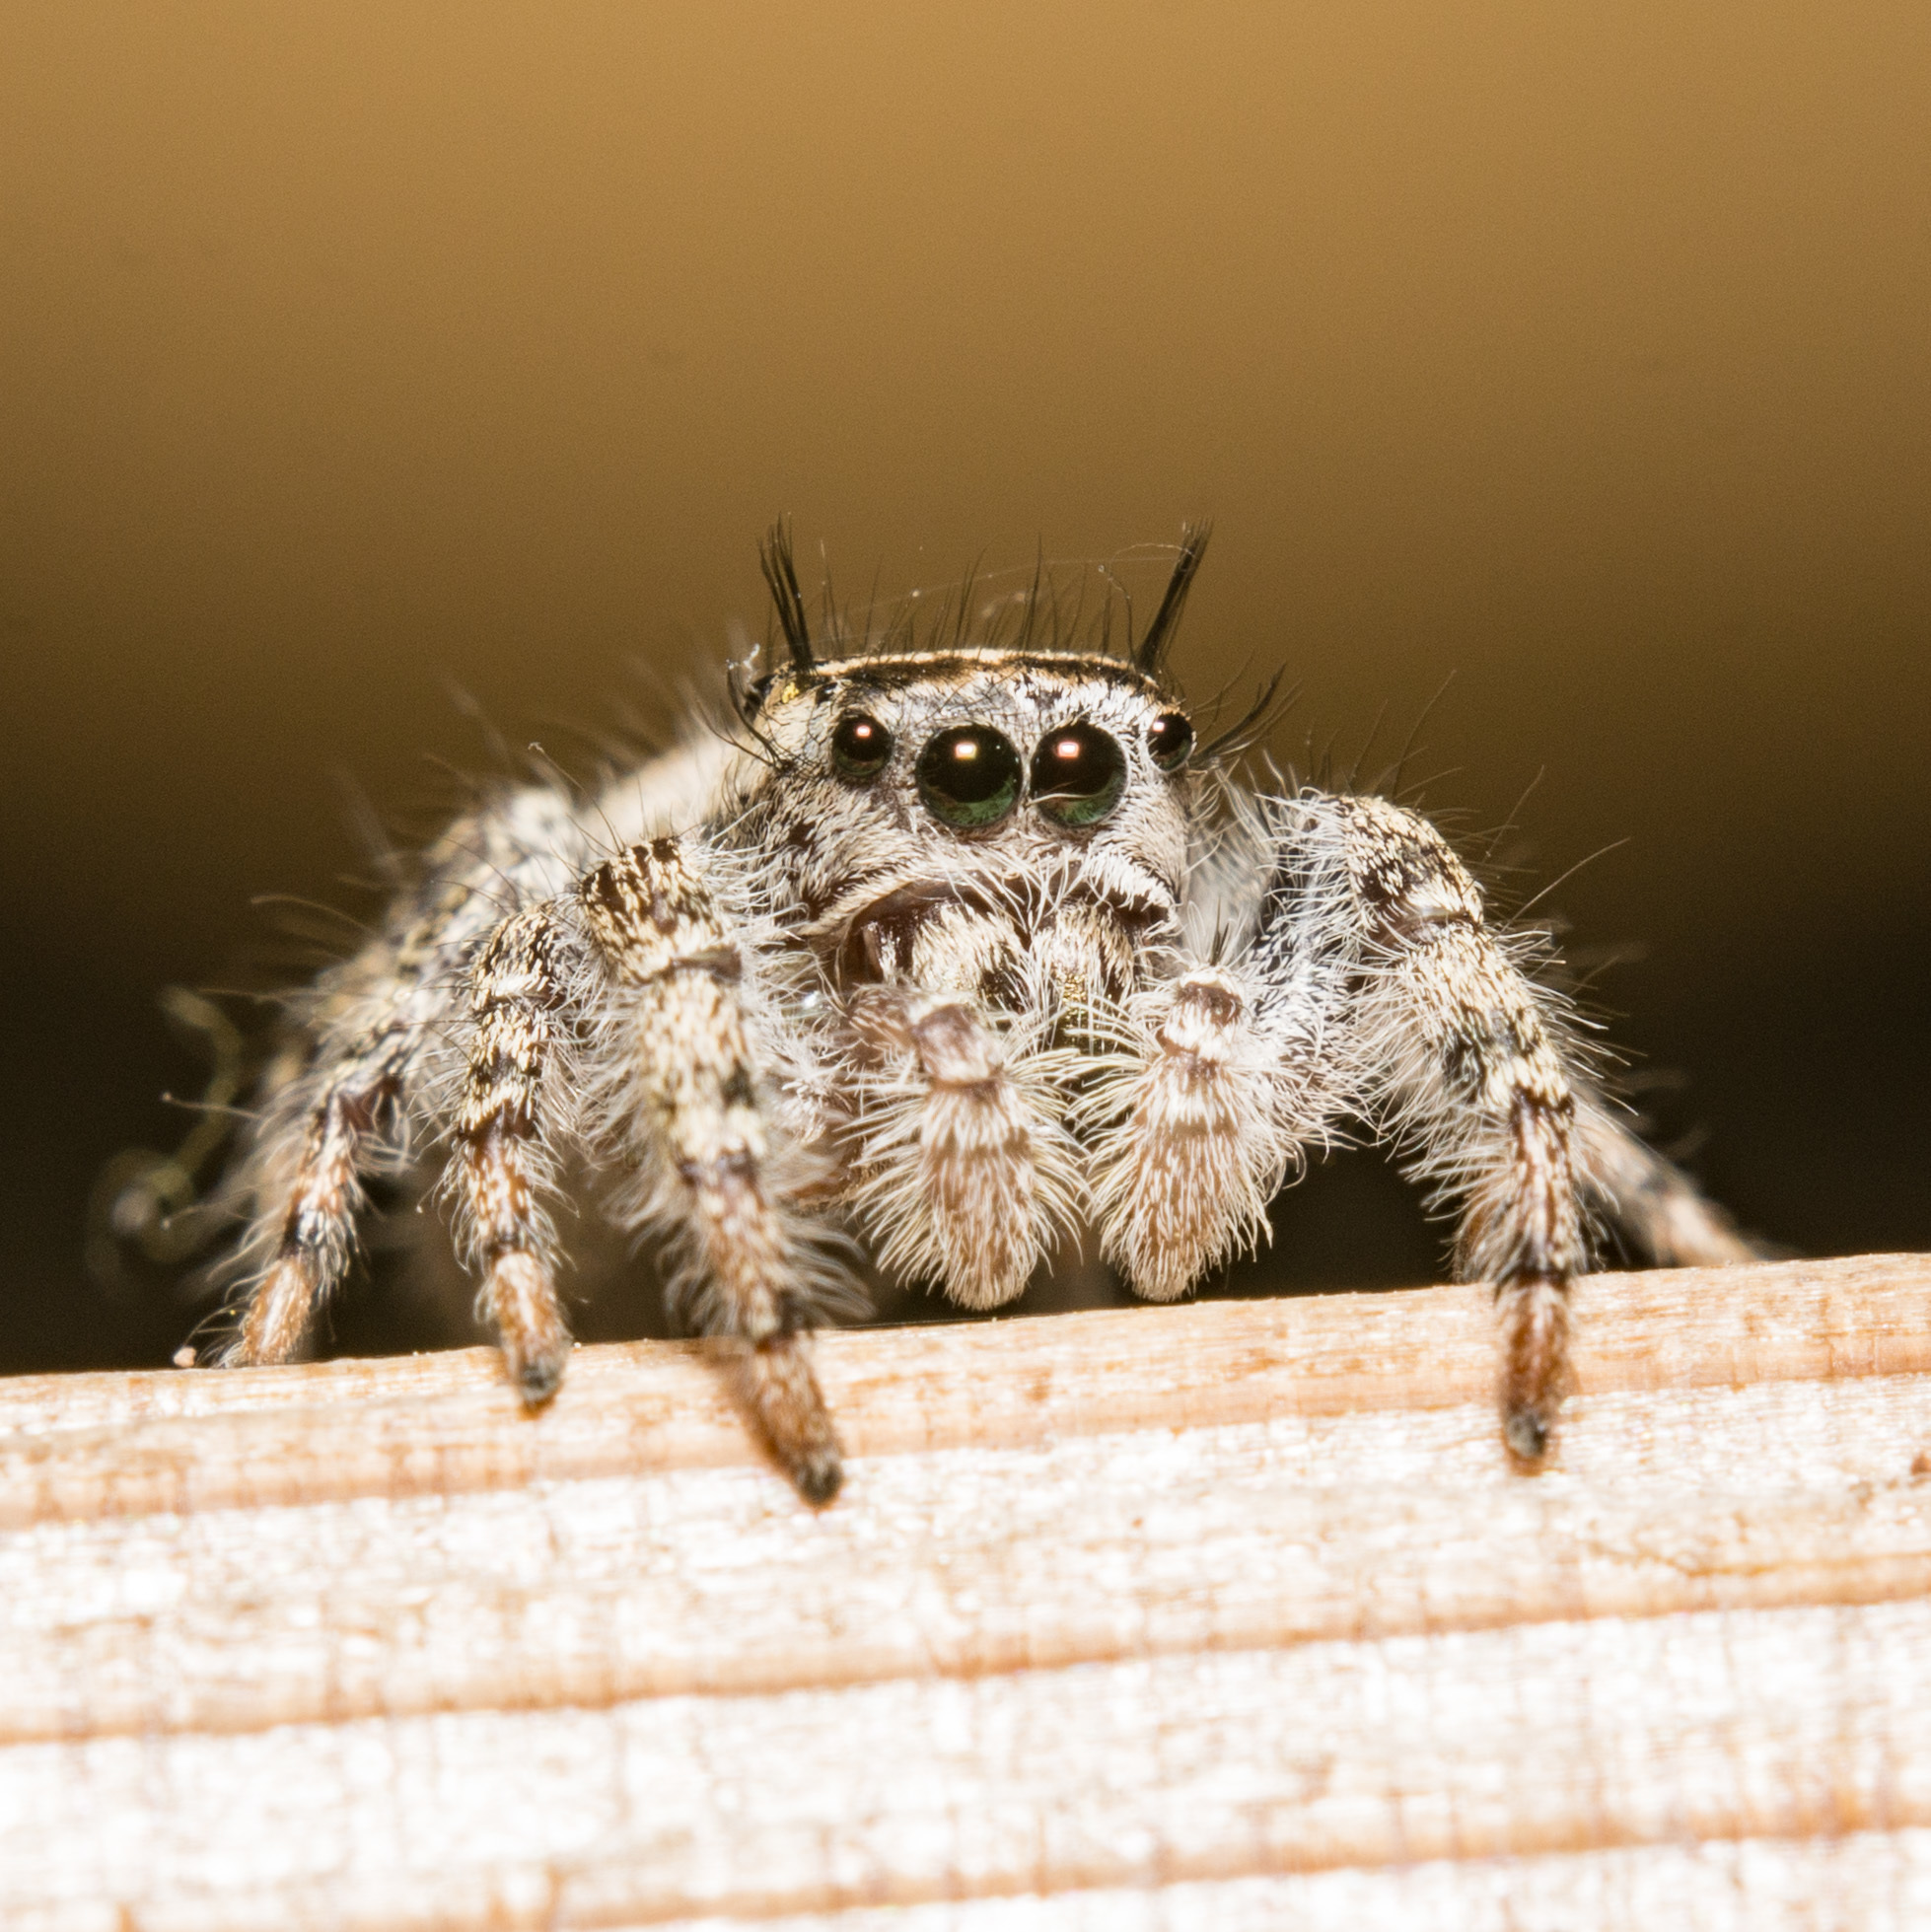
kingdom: Animalia
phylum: Arthropoda
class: Arachnida
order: Araneae
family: Salticidae
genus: Phidippus
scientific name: Phidippus pruinosus
